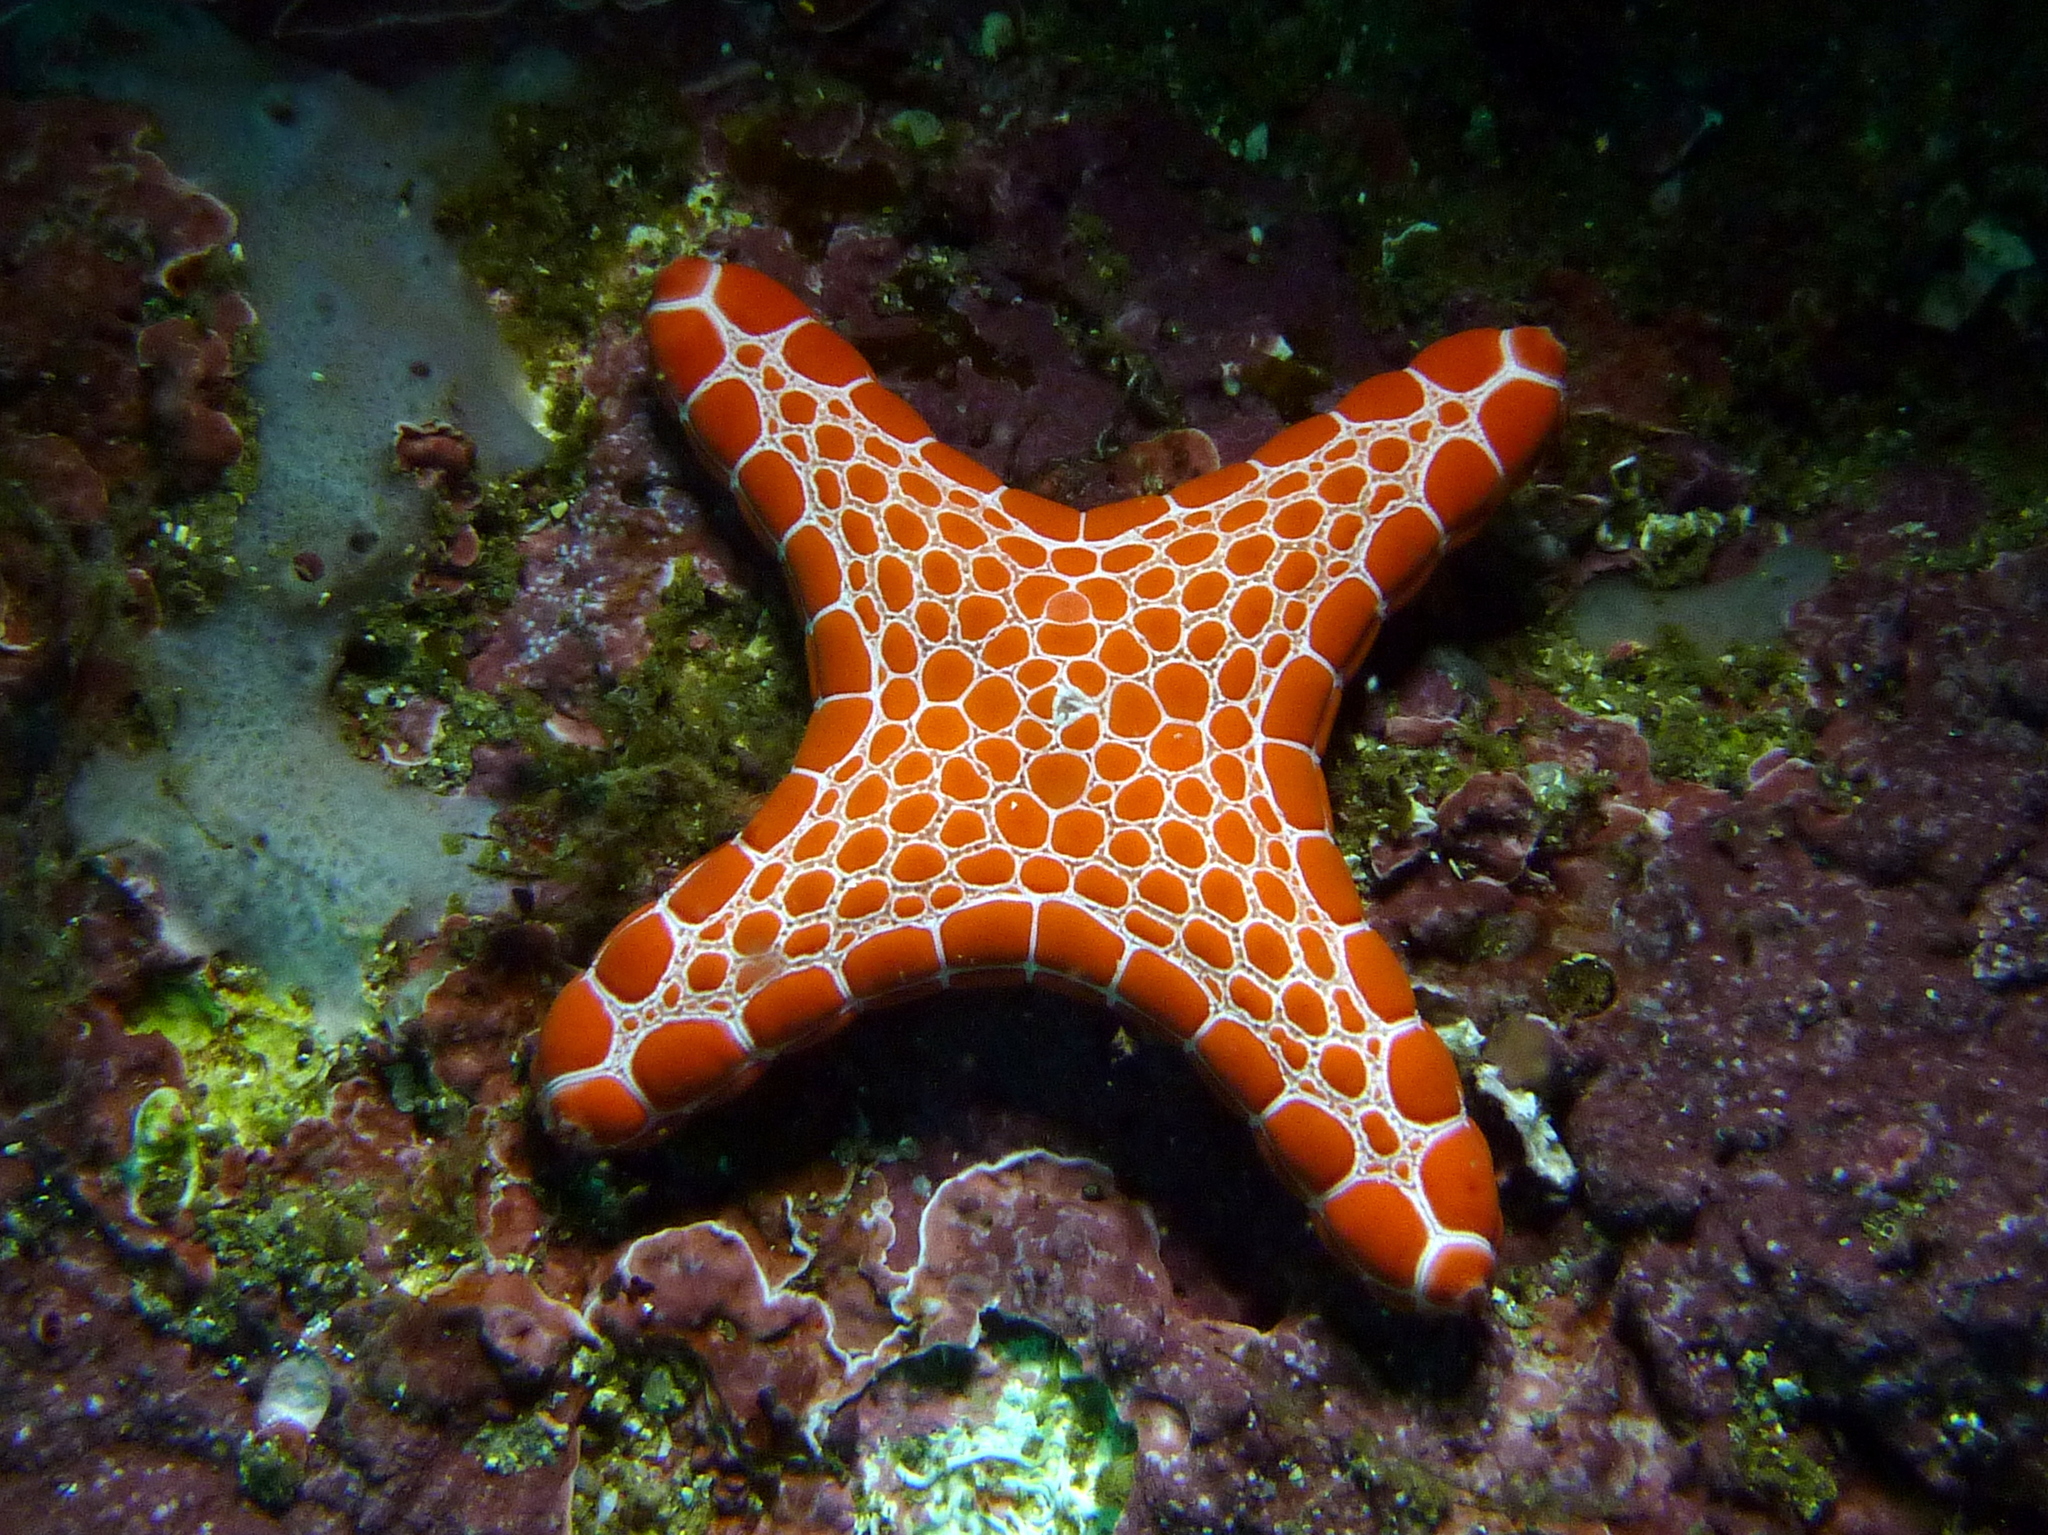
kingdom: Animalia
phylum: Echinodermata
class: Asteroidea
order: Valvatida
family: Goniasteridae
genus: Pentagonaster
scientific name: Pentagonaster duebeni
